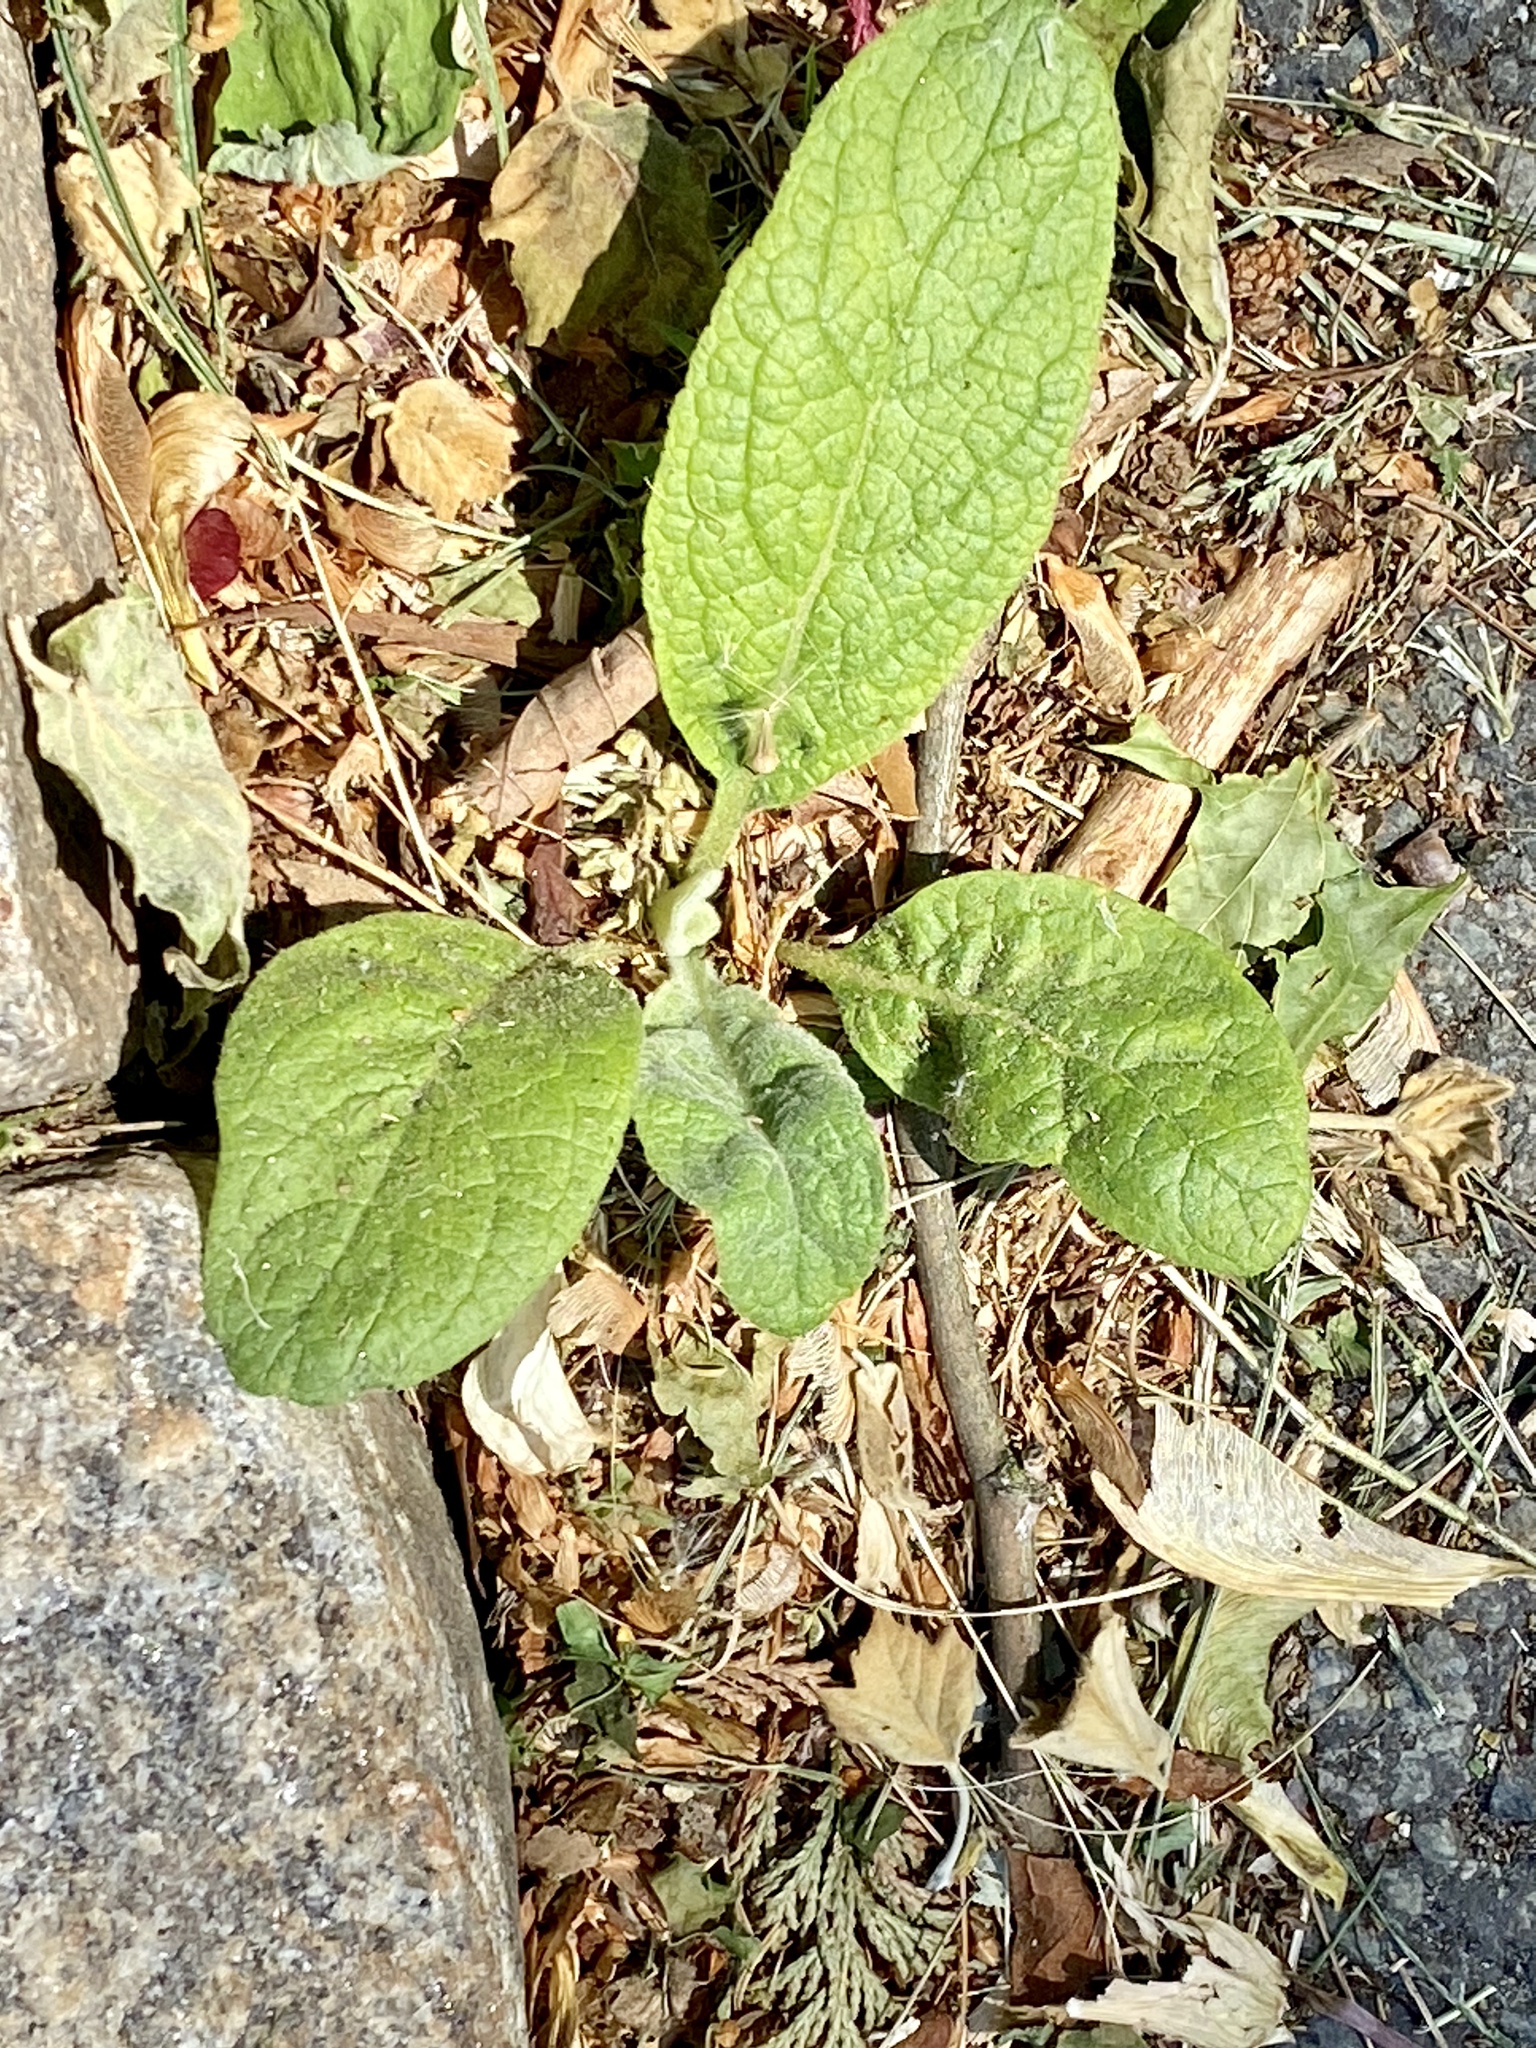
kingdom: Plantae
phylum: Tracheophyta
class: Magnoliopsida
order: Lamiales
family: Scrophulariaceae
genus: Verbascum
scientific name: Verbascum thapsus
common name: Common mullein
